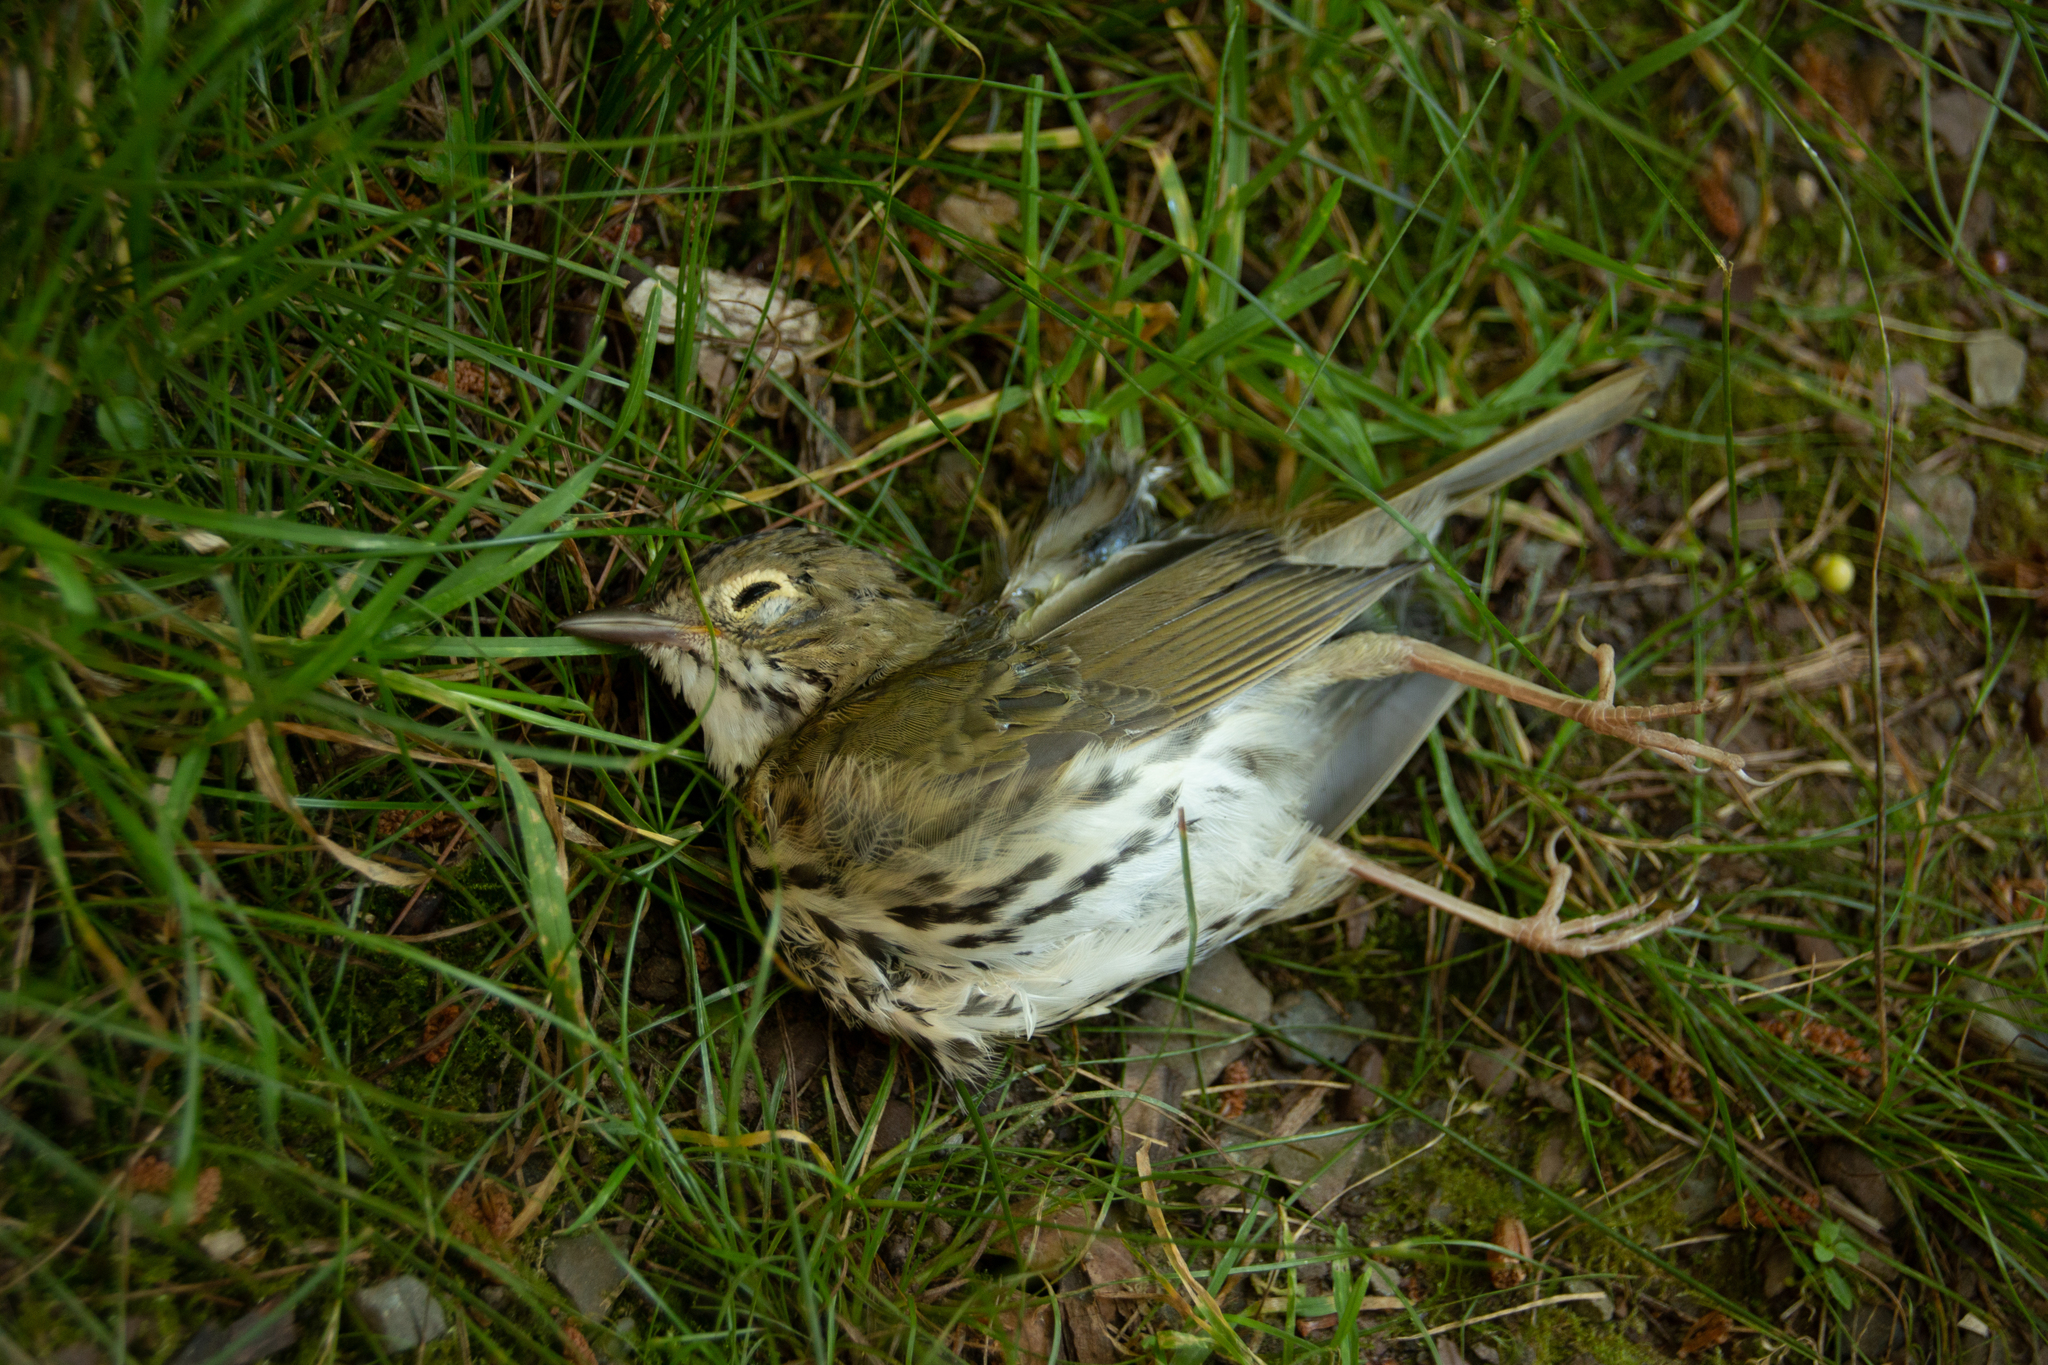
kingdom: Animalia
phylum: Chordata
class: Aves
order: Passeriformes
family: Parulidae
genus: Seiurus
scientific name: Seiurus aurocapilla
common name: Ovenbird
